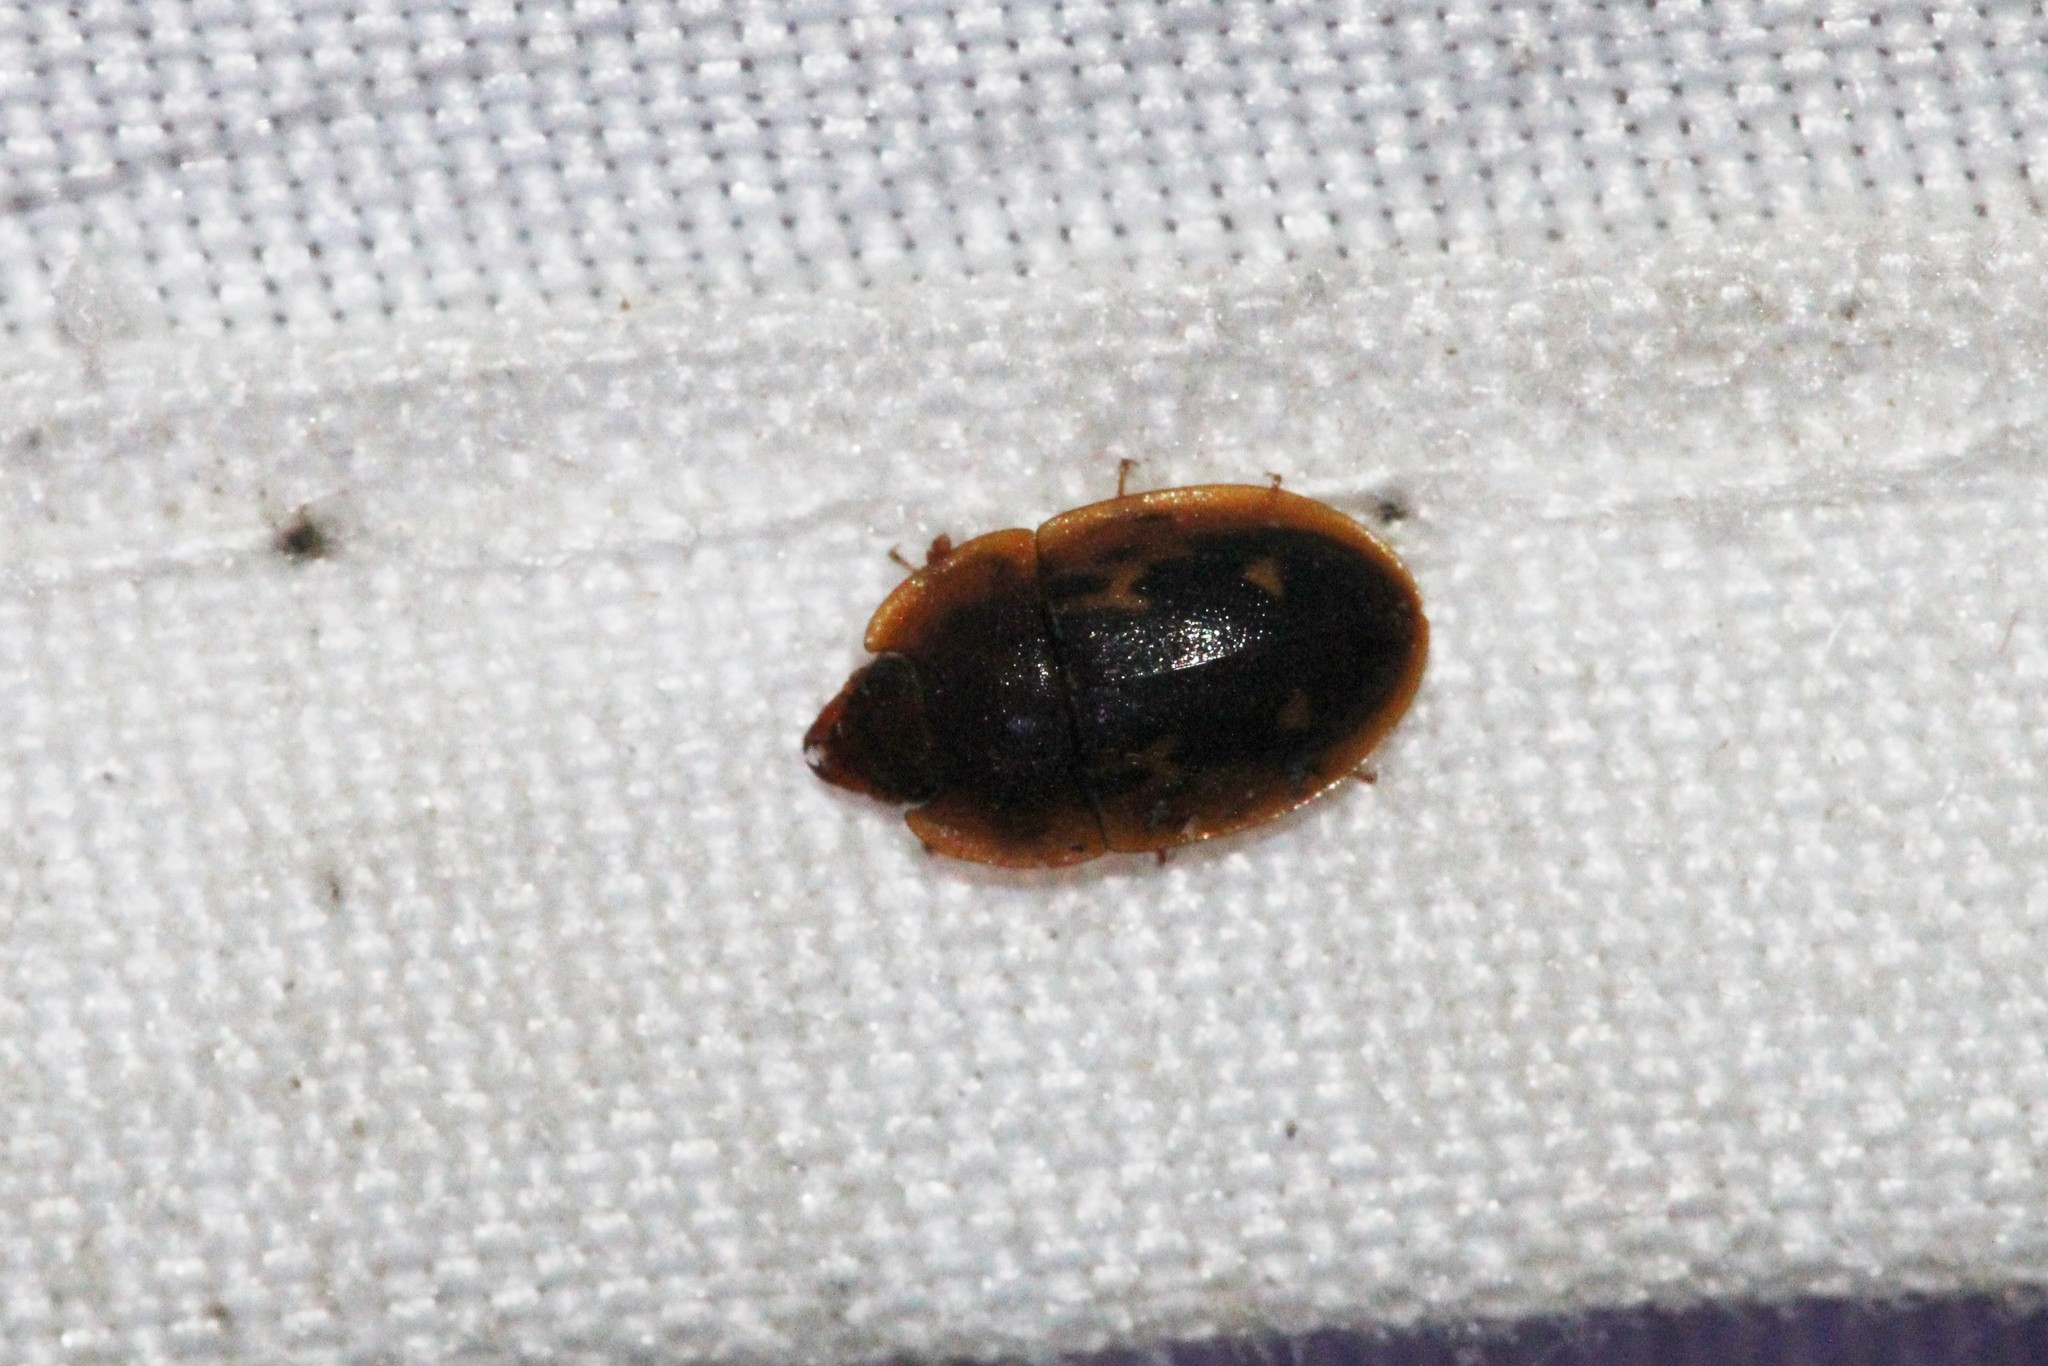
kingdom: Animalia
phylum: Arthropoda
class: Insecta
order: Coleoptera
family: Nitidulidae
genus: Prometopia
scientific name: Prometopia sexmaculata
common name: Six-spotted sap-feeding beetle
